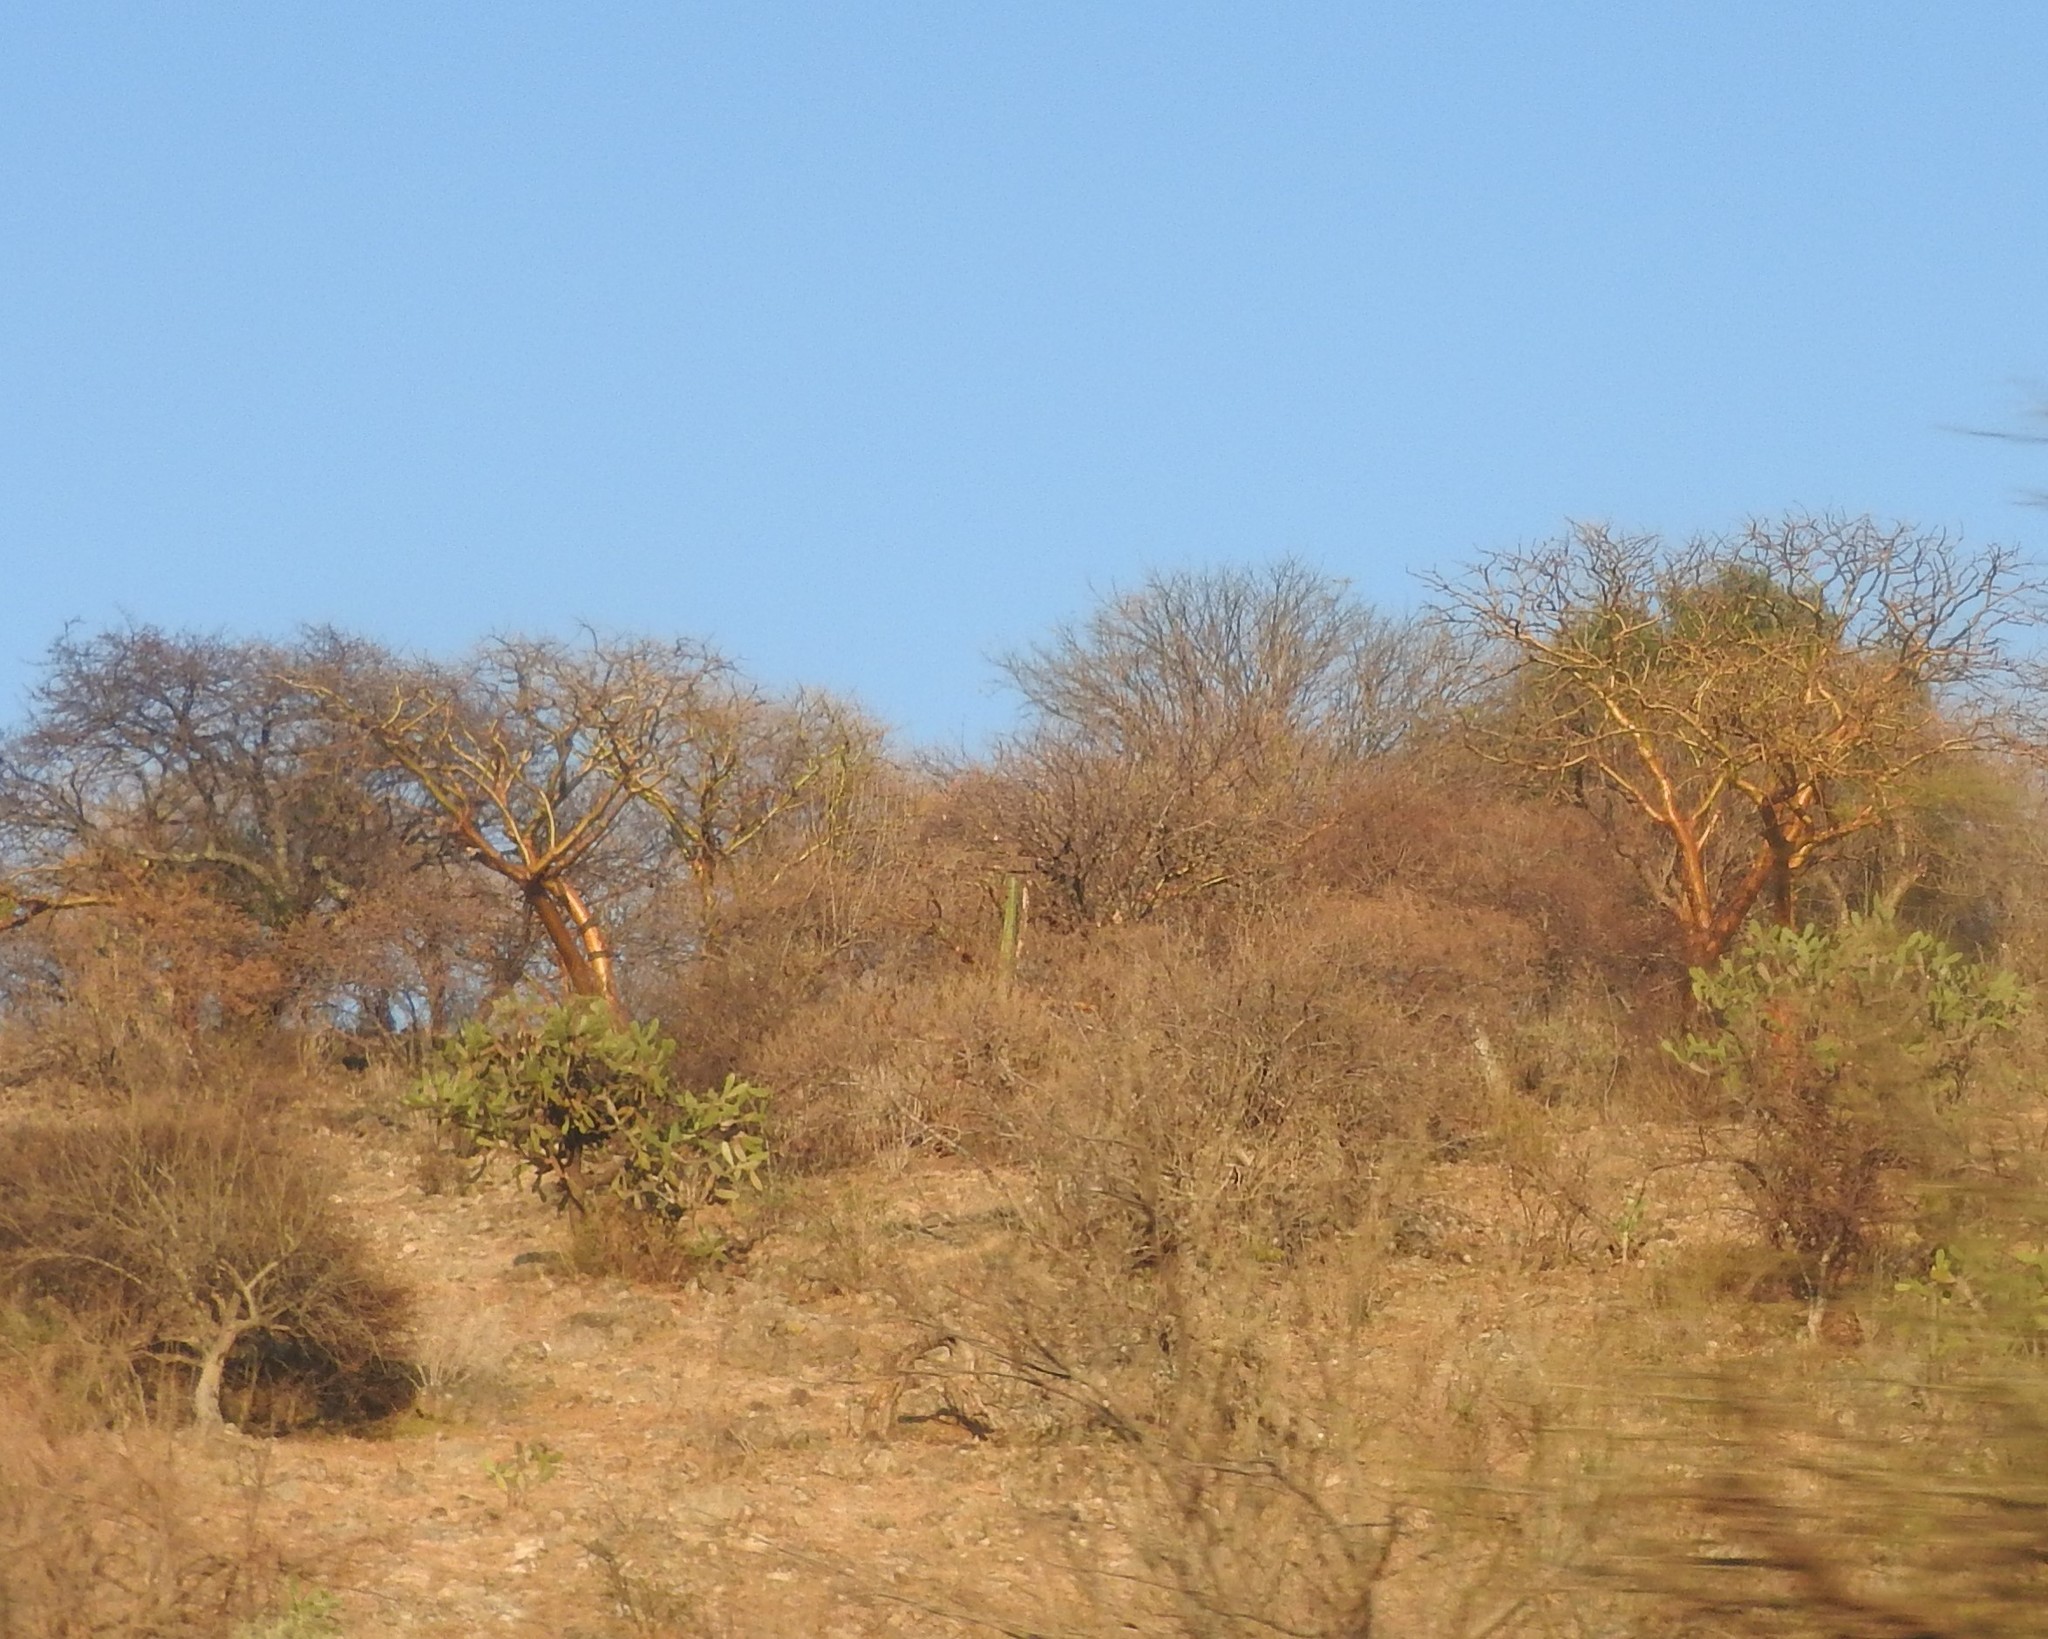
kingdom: Plantae
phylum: Tracheophyta
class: Magnoliopsida
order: Sapindales
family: Burseraceae
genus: Bursera
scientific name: Bursera fagaroides
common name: Elephant tree
